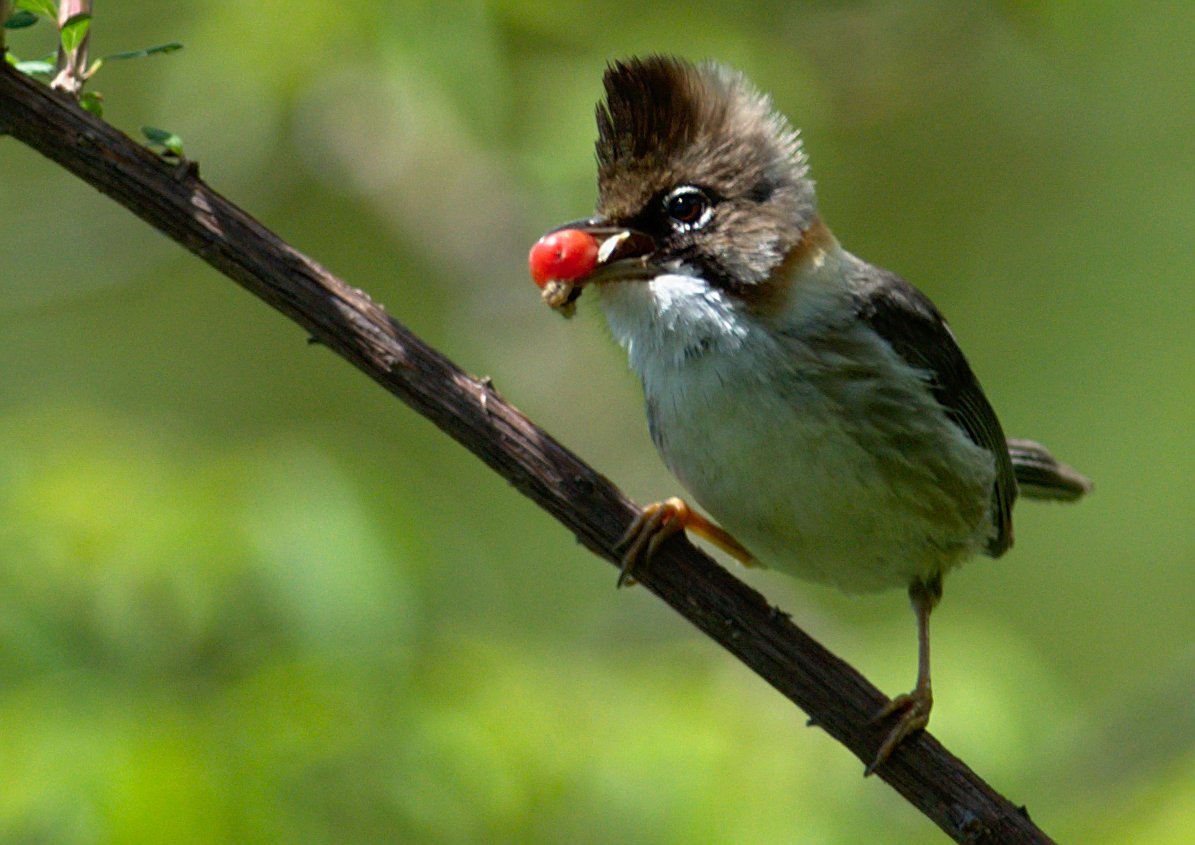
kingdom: Animalia
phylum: Chordata
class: Aves
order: Passeriformes
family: Zosteropidae
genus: Yuhina
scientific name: Yuhina flavicollis
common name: Whiskered yuhina
